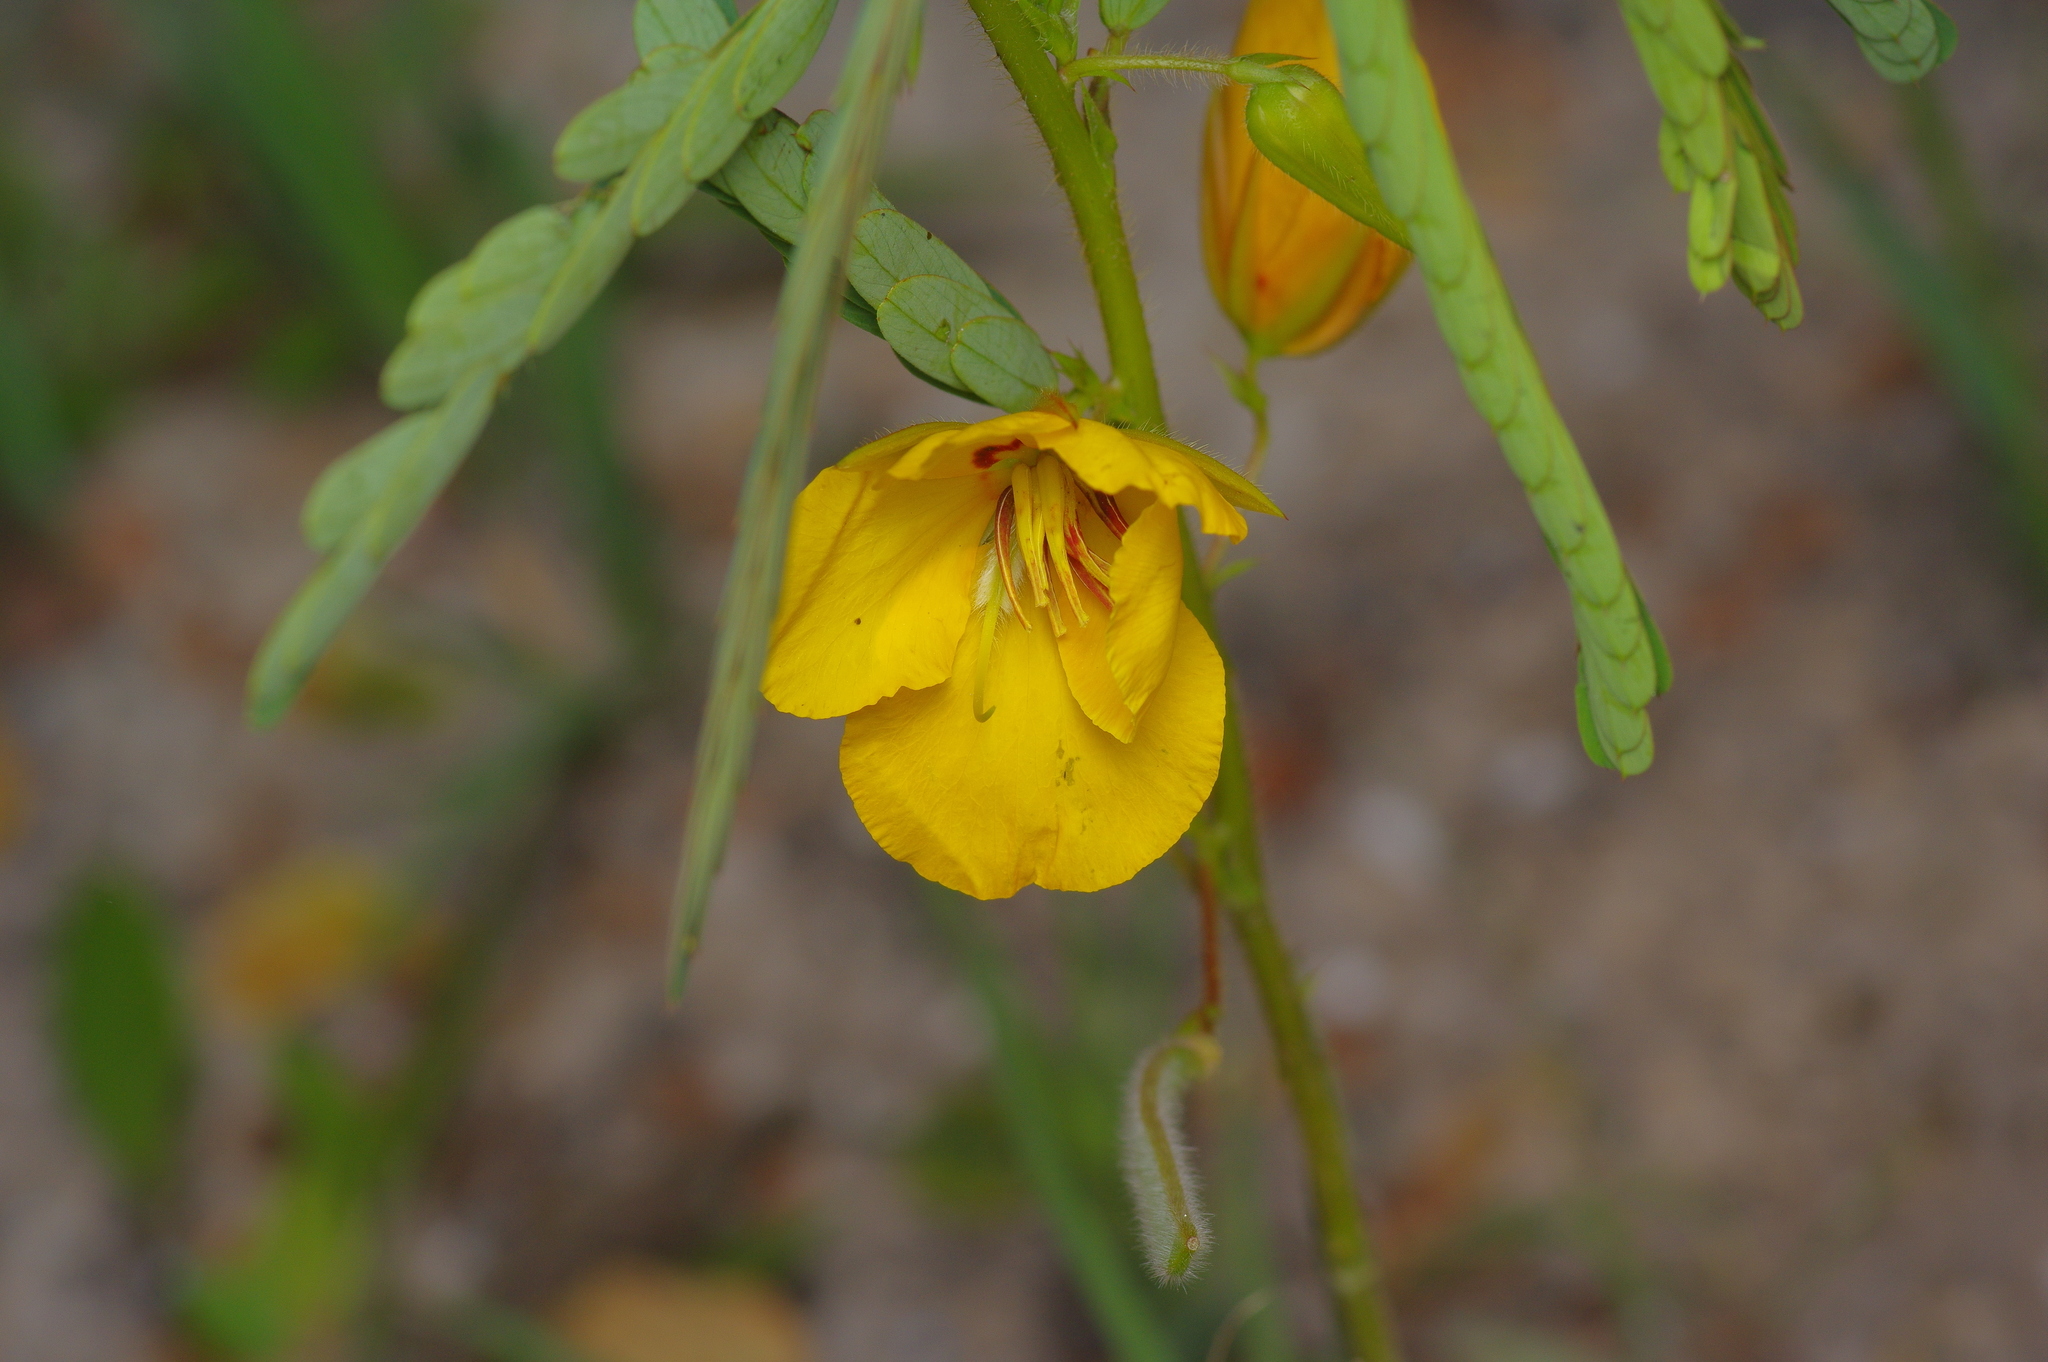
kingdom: Plantae
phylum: Tracheophyta
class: Magnoliopsida
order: Fabales
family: Fabaceae
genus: Chamaecrista
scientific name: Chamaecrista fasciculata
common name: Golden cassia
